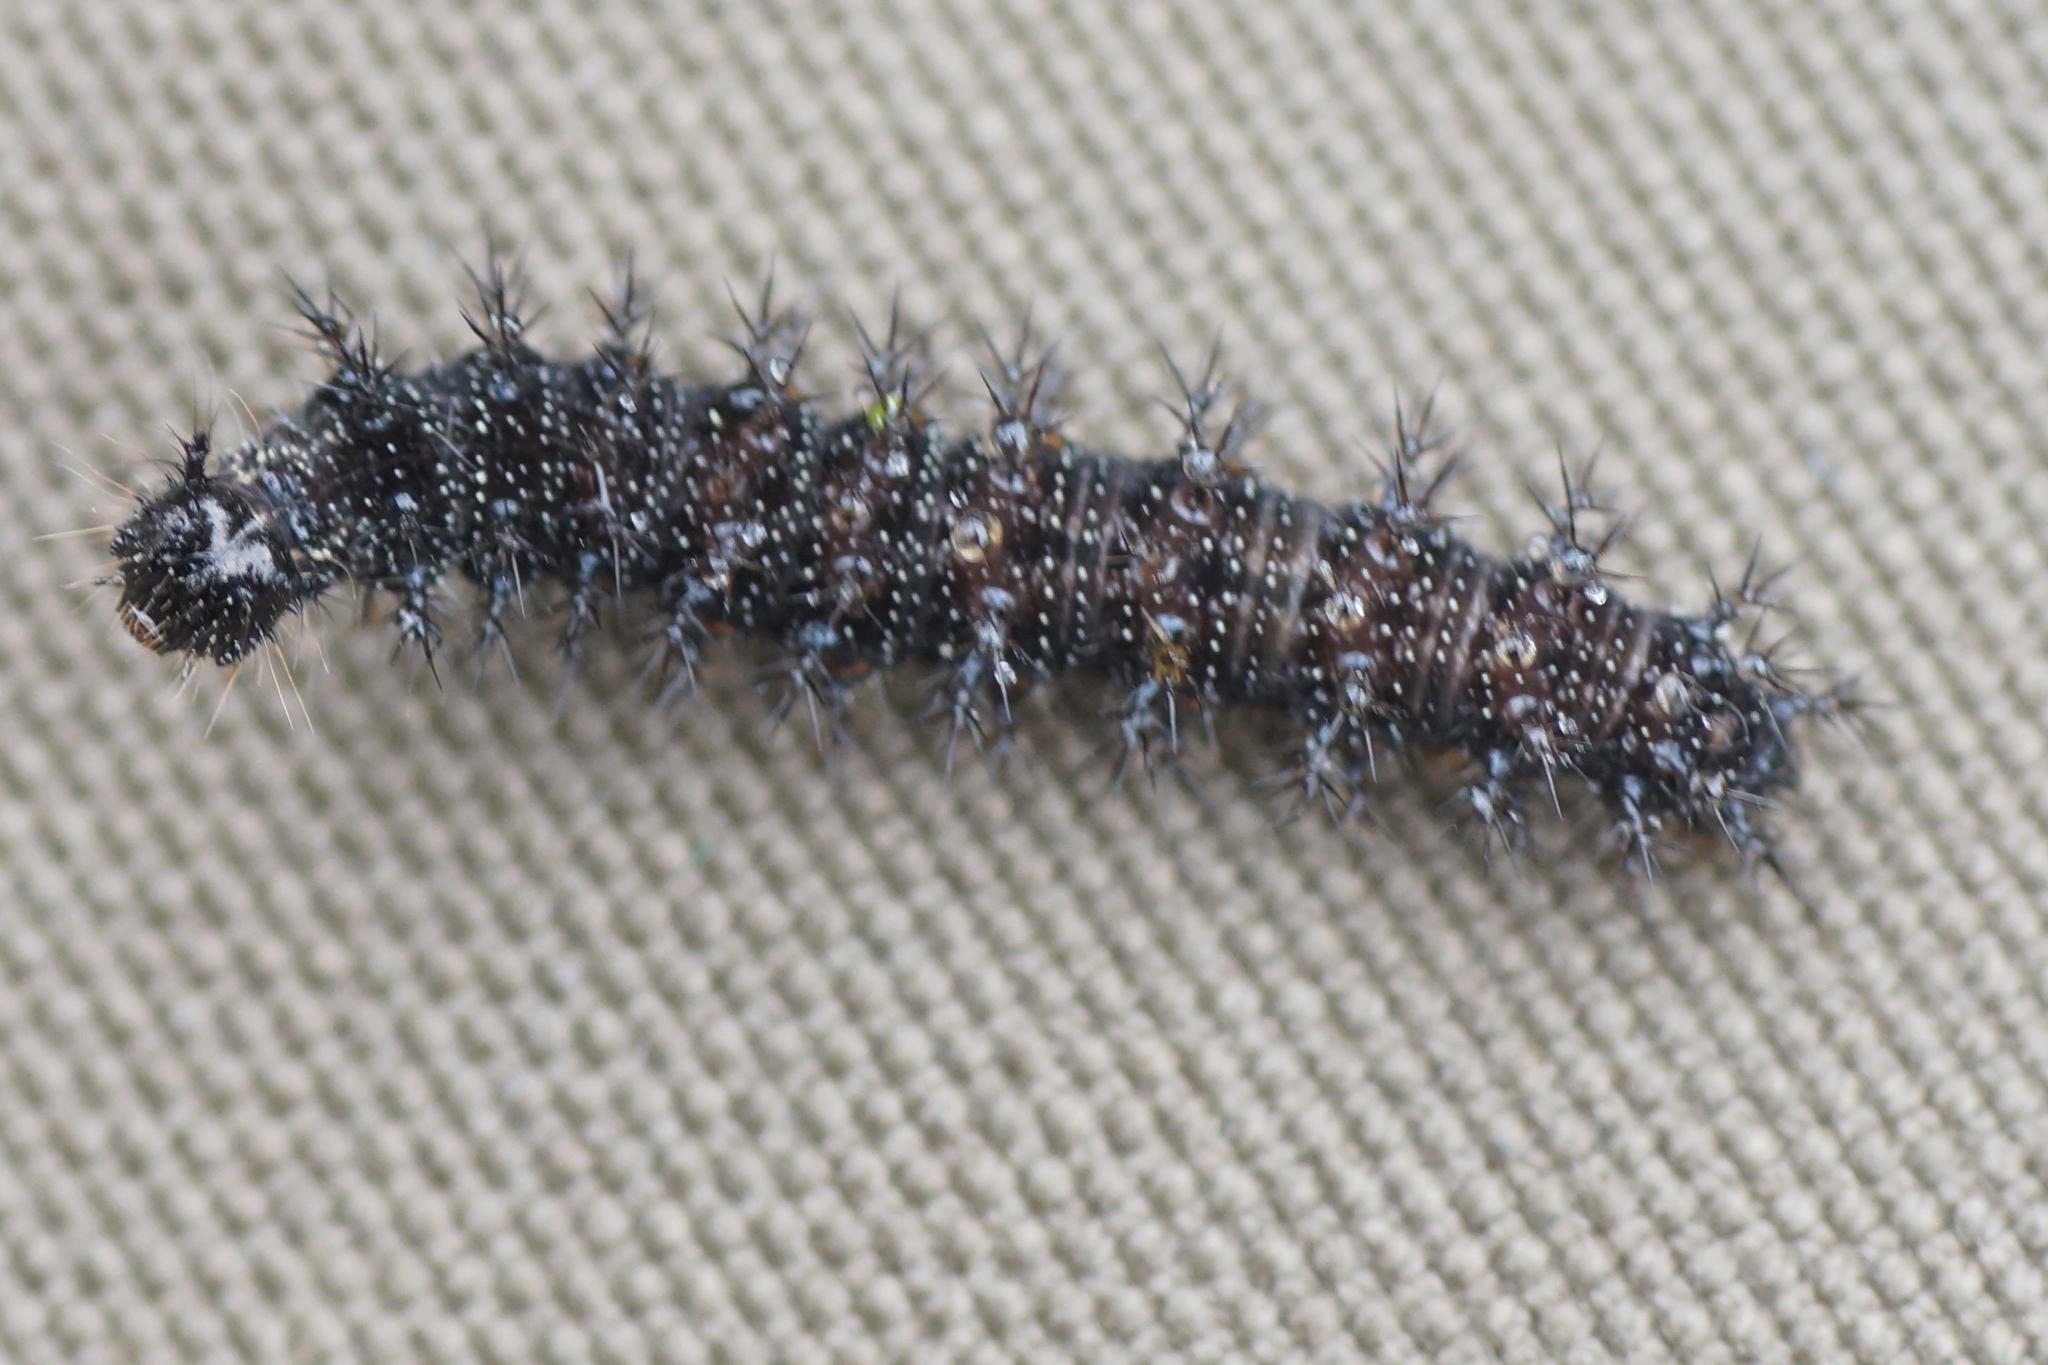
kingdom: Animalia
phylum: Arthropoda
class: Insecta
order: Lepidoptera
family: Nymphalidae
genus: Araschnia
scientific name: Araschnia levana
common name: Map butterfly
